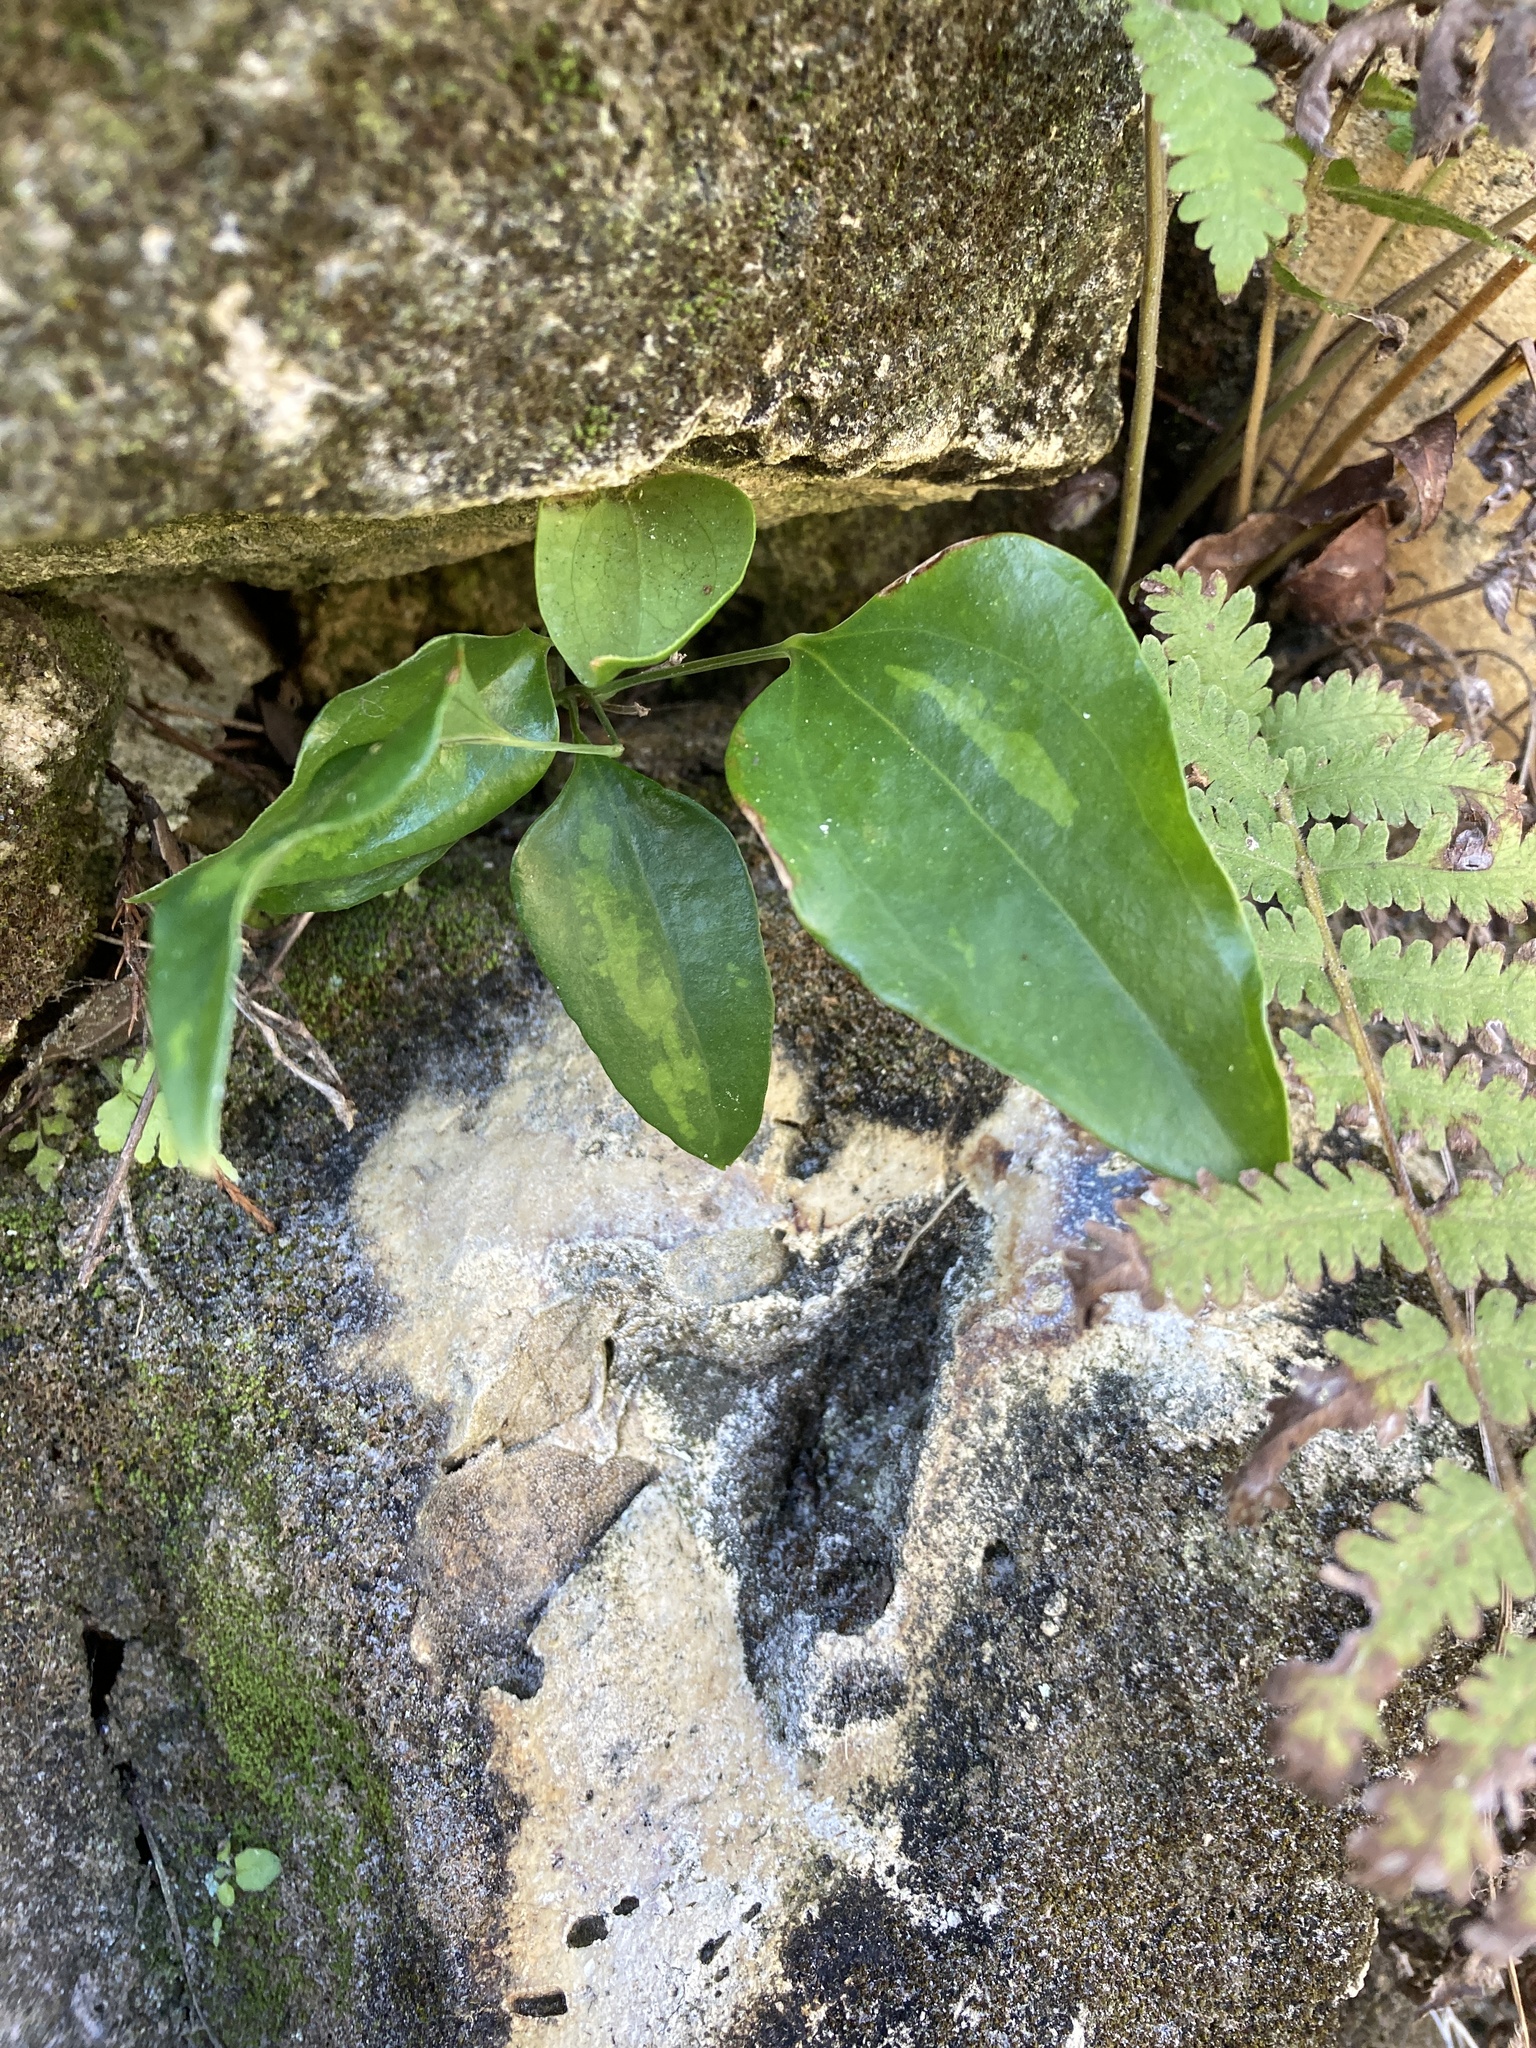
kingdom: Plantae
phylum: Tracheophyta
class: Liliopsida
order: Liliales
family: Smilacaceae
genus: Smilax
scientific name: Smilax maritima
